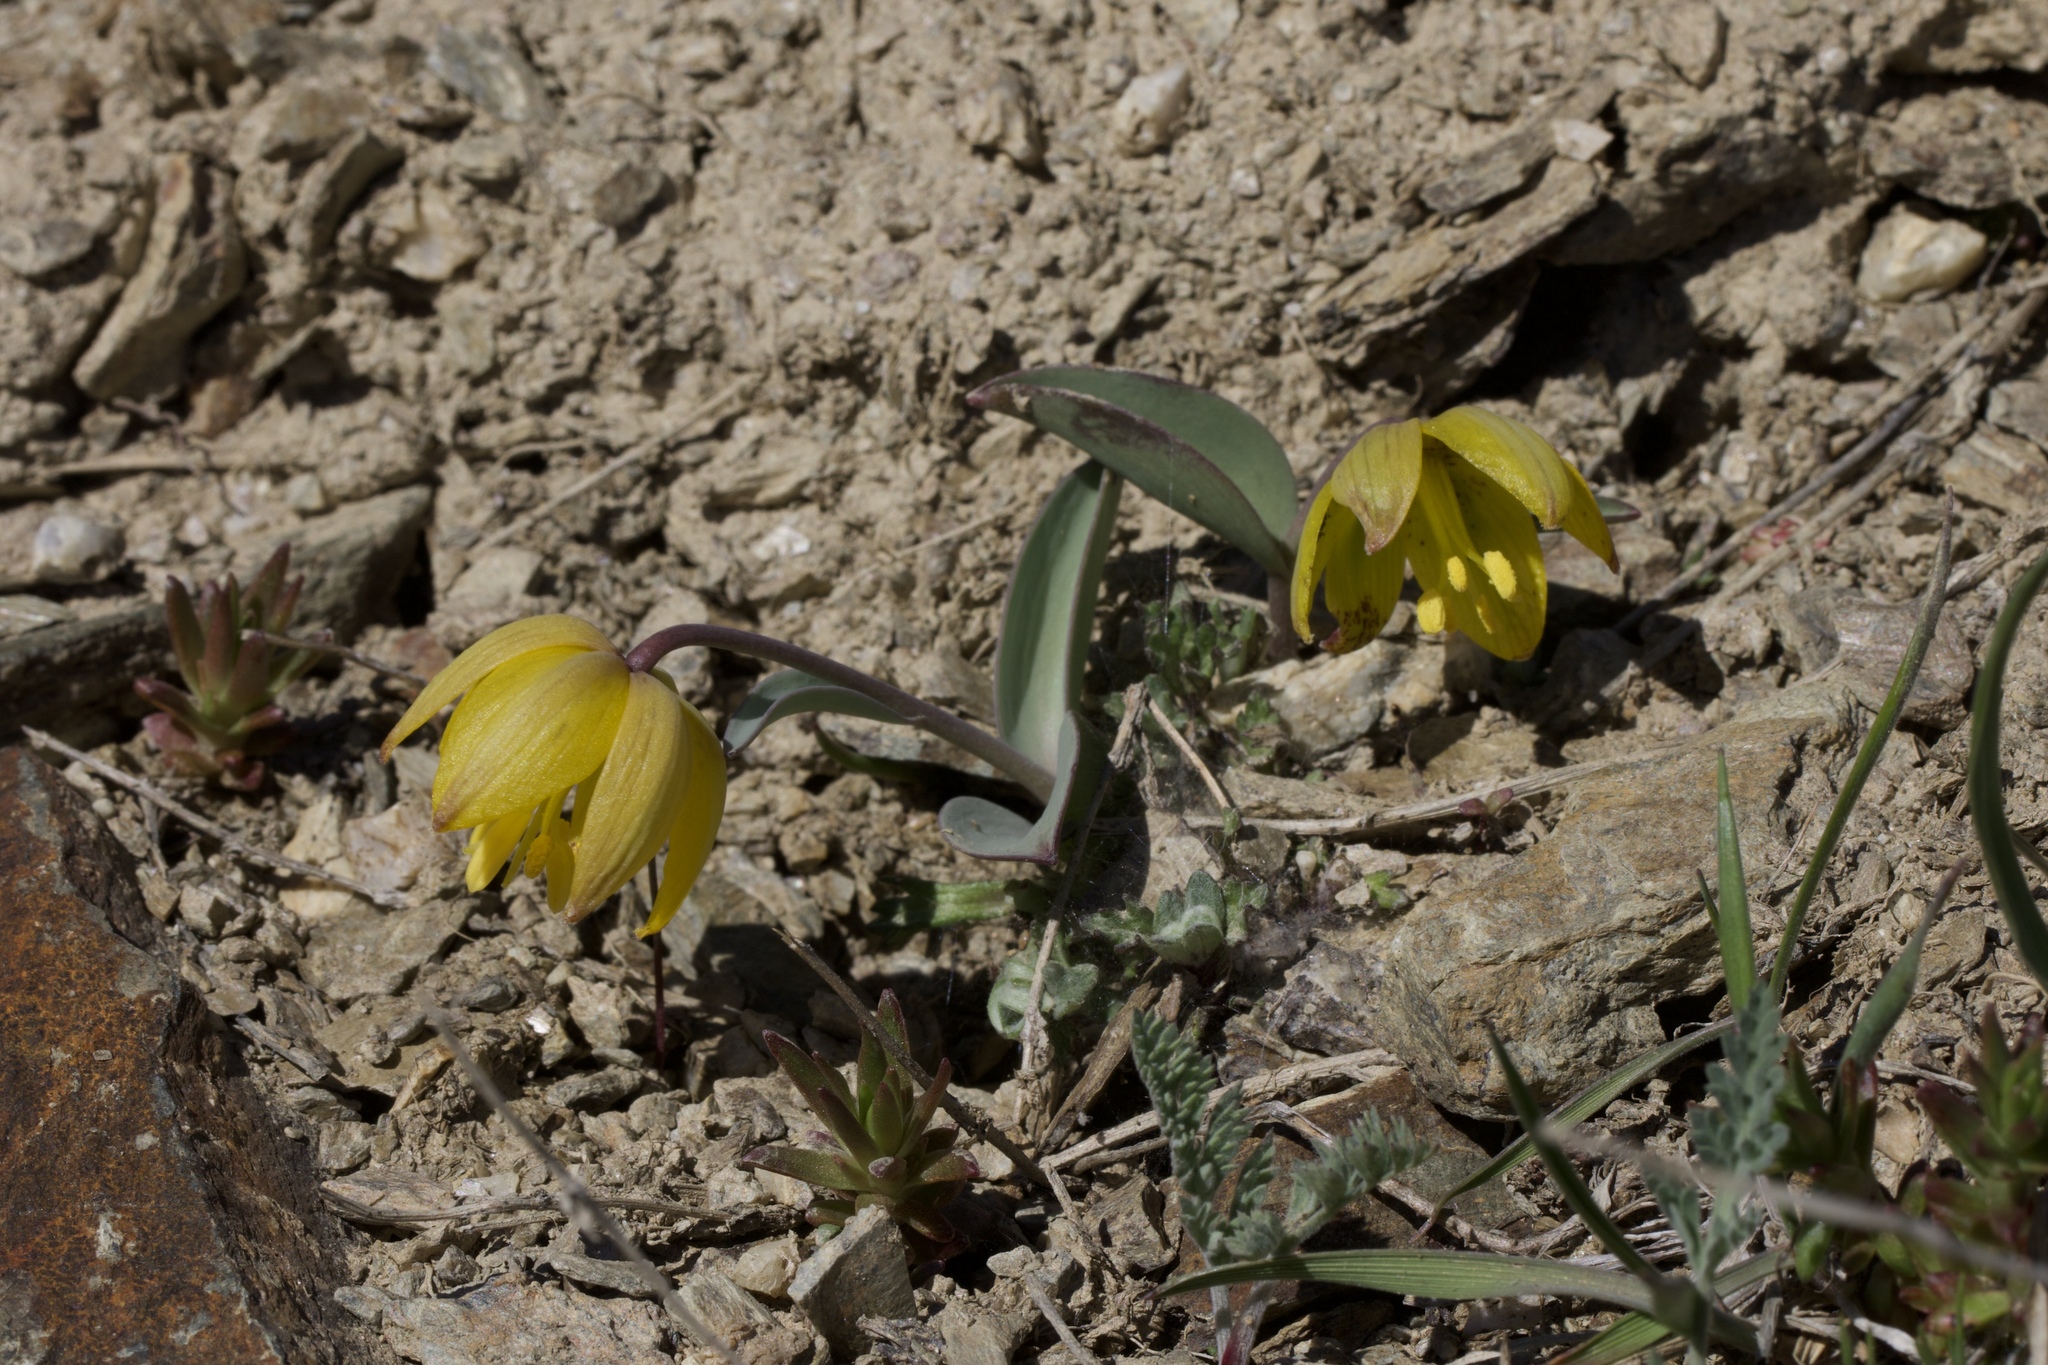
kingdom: Plantae
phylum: Tracheophyta
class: Liliopsida
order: Liliales
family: Liliaceae
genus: Fritillaria
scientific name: Fritillaria glauca
